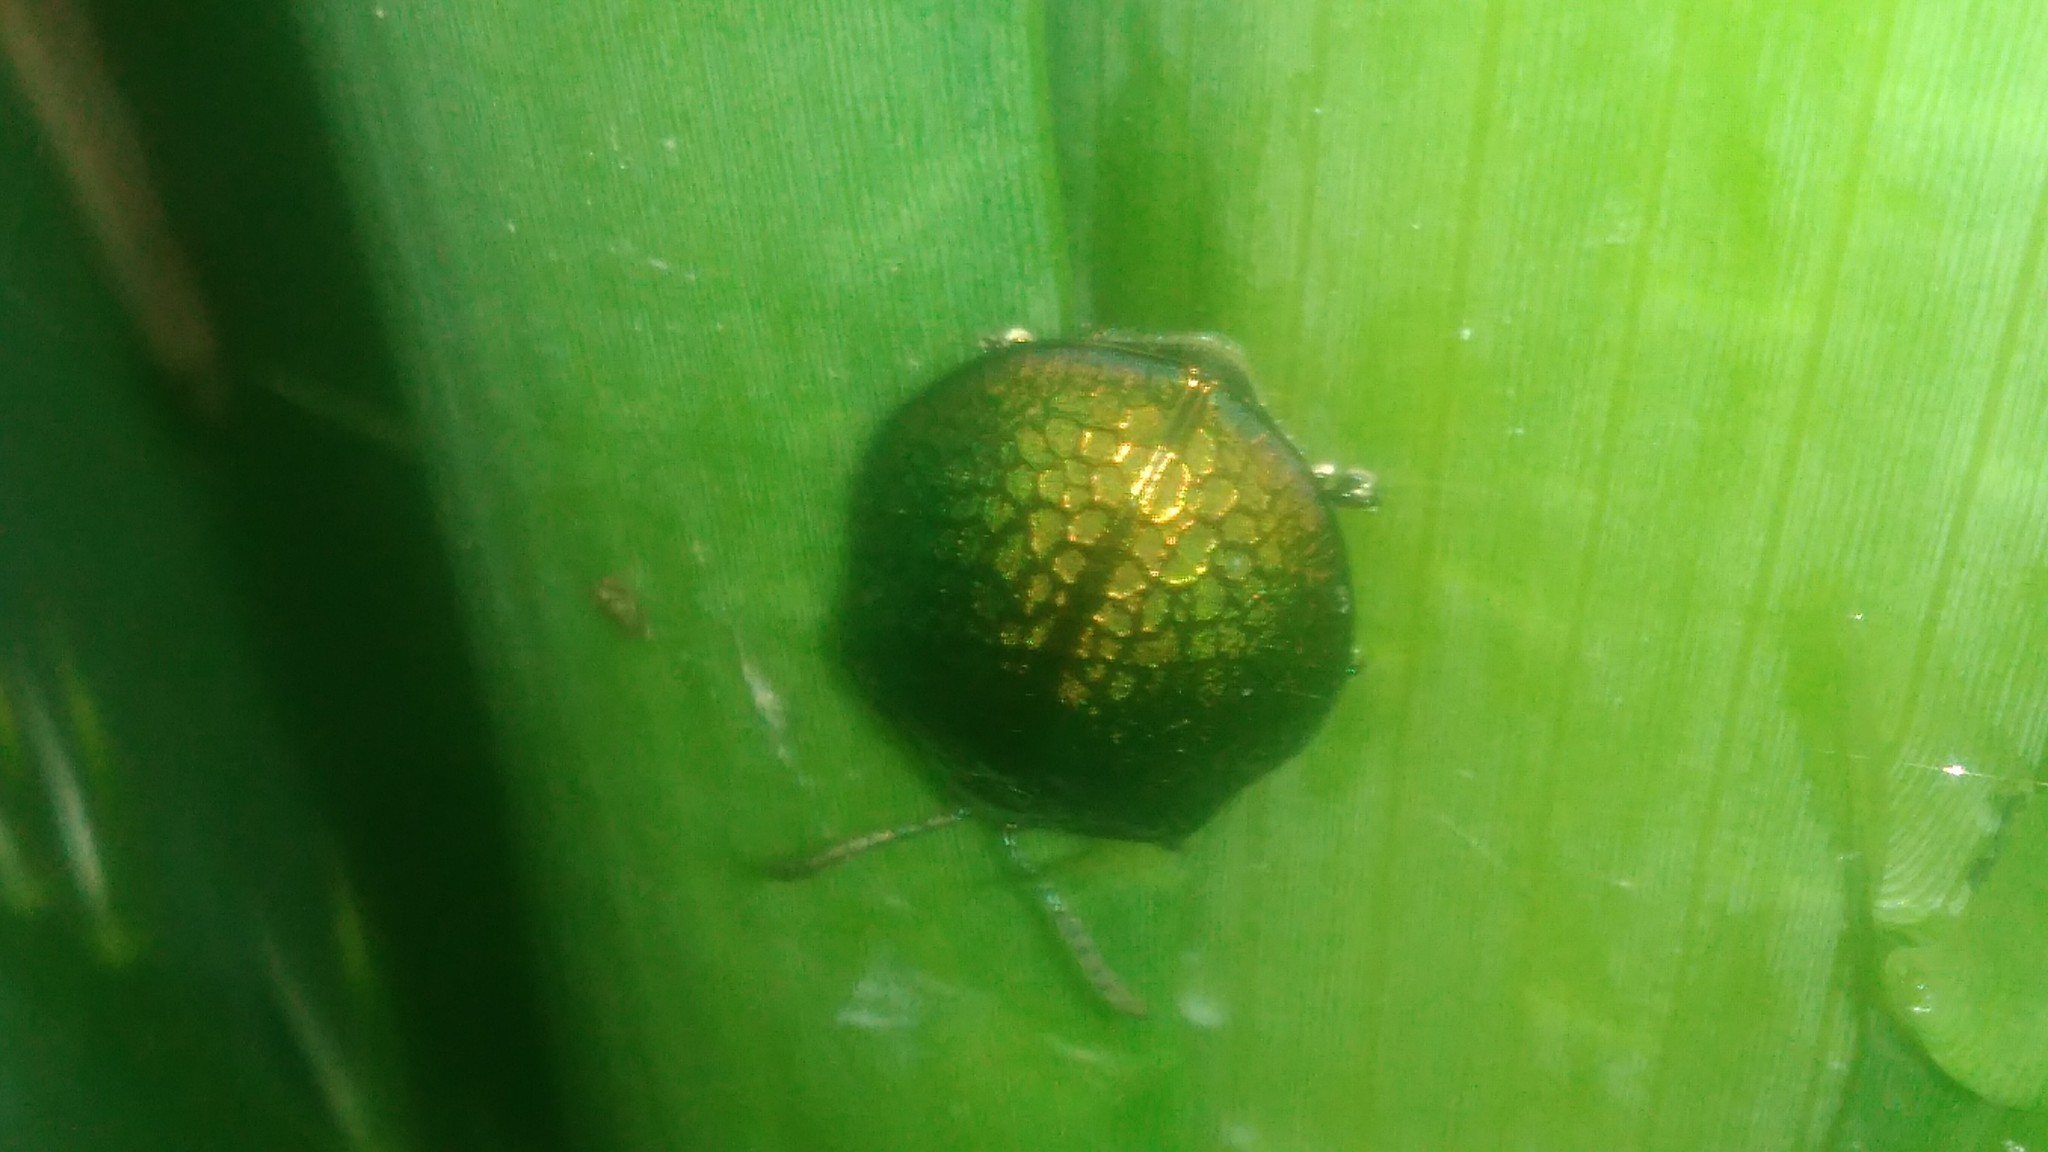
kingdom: Animalia
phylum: Arthropoda
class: Insecta
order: Coleoptera
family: Chrysomelidae
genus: Stolas
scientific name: Stolas festiva
